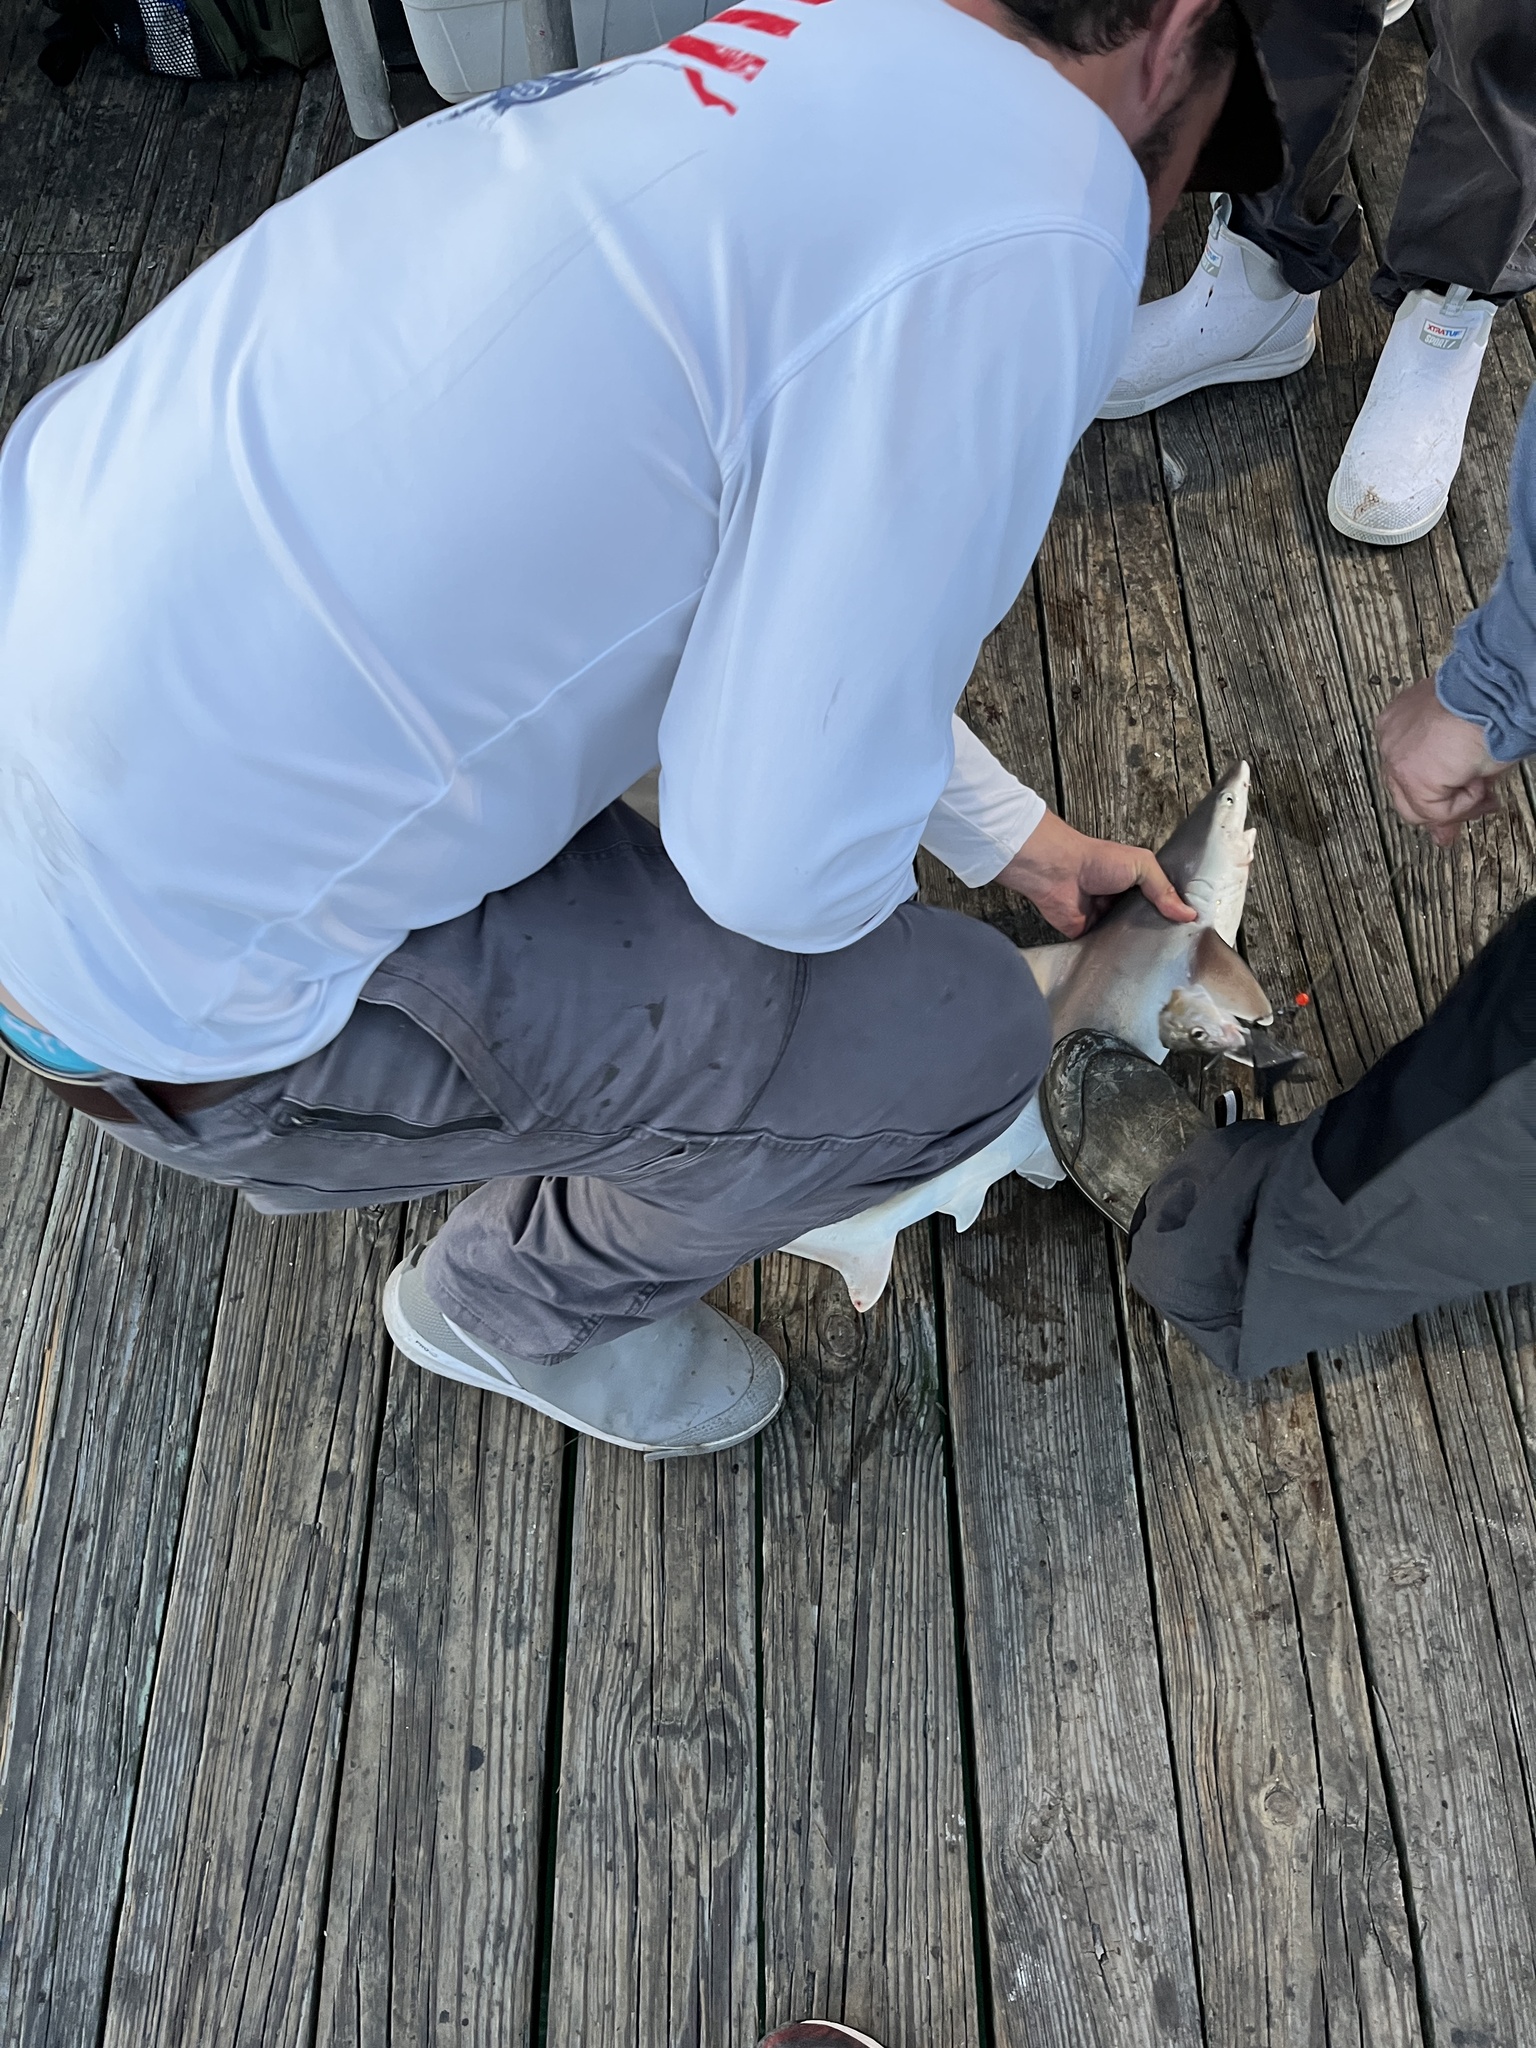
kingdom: Animalia
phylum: Chordata
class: Elasmobranchii
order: Carcharhiniformes
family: Carcharhinidae
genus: Carcharhinus
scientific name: Carcharhinus plumbeus
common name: Sandbar shark
